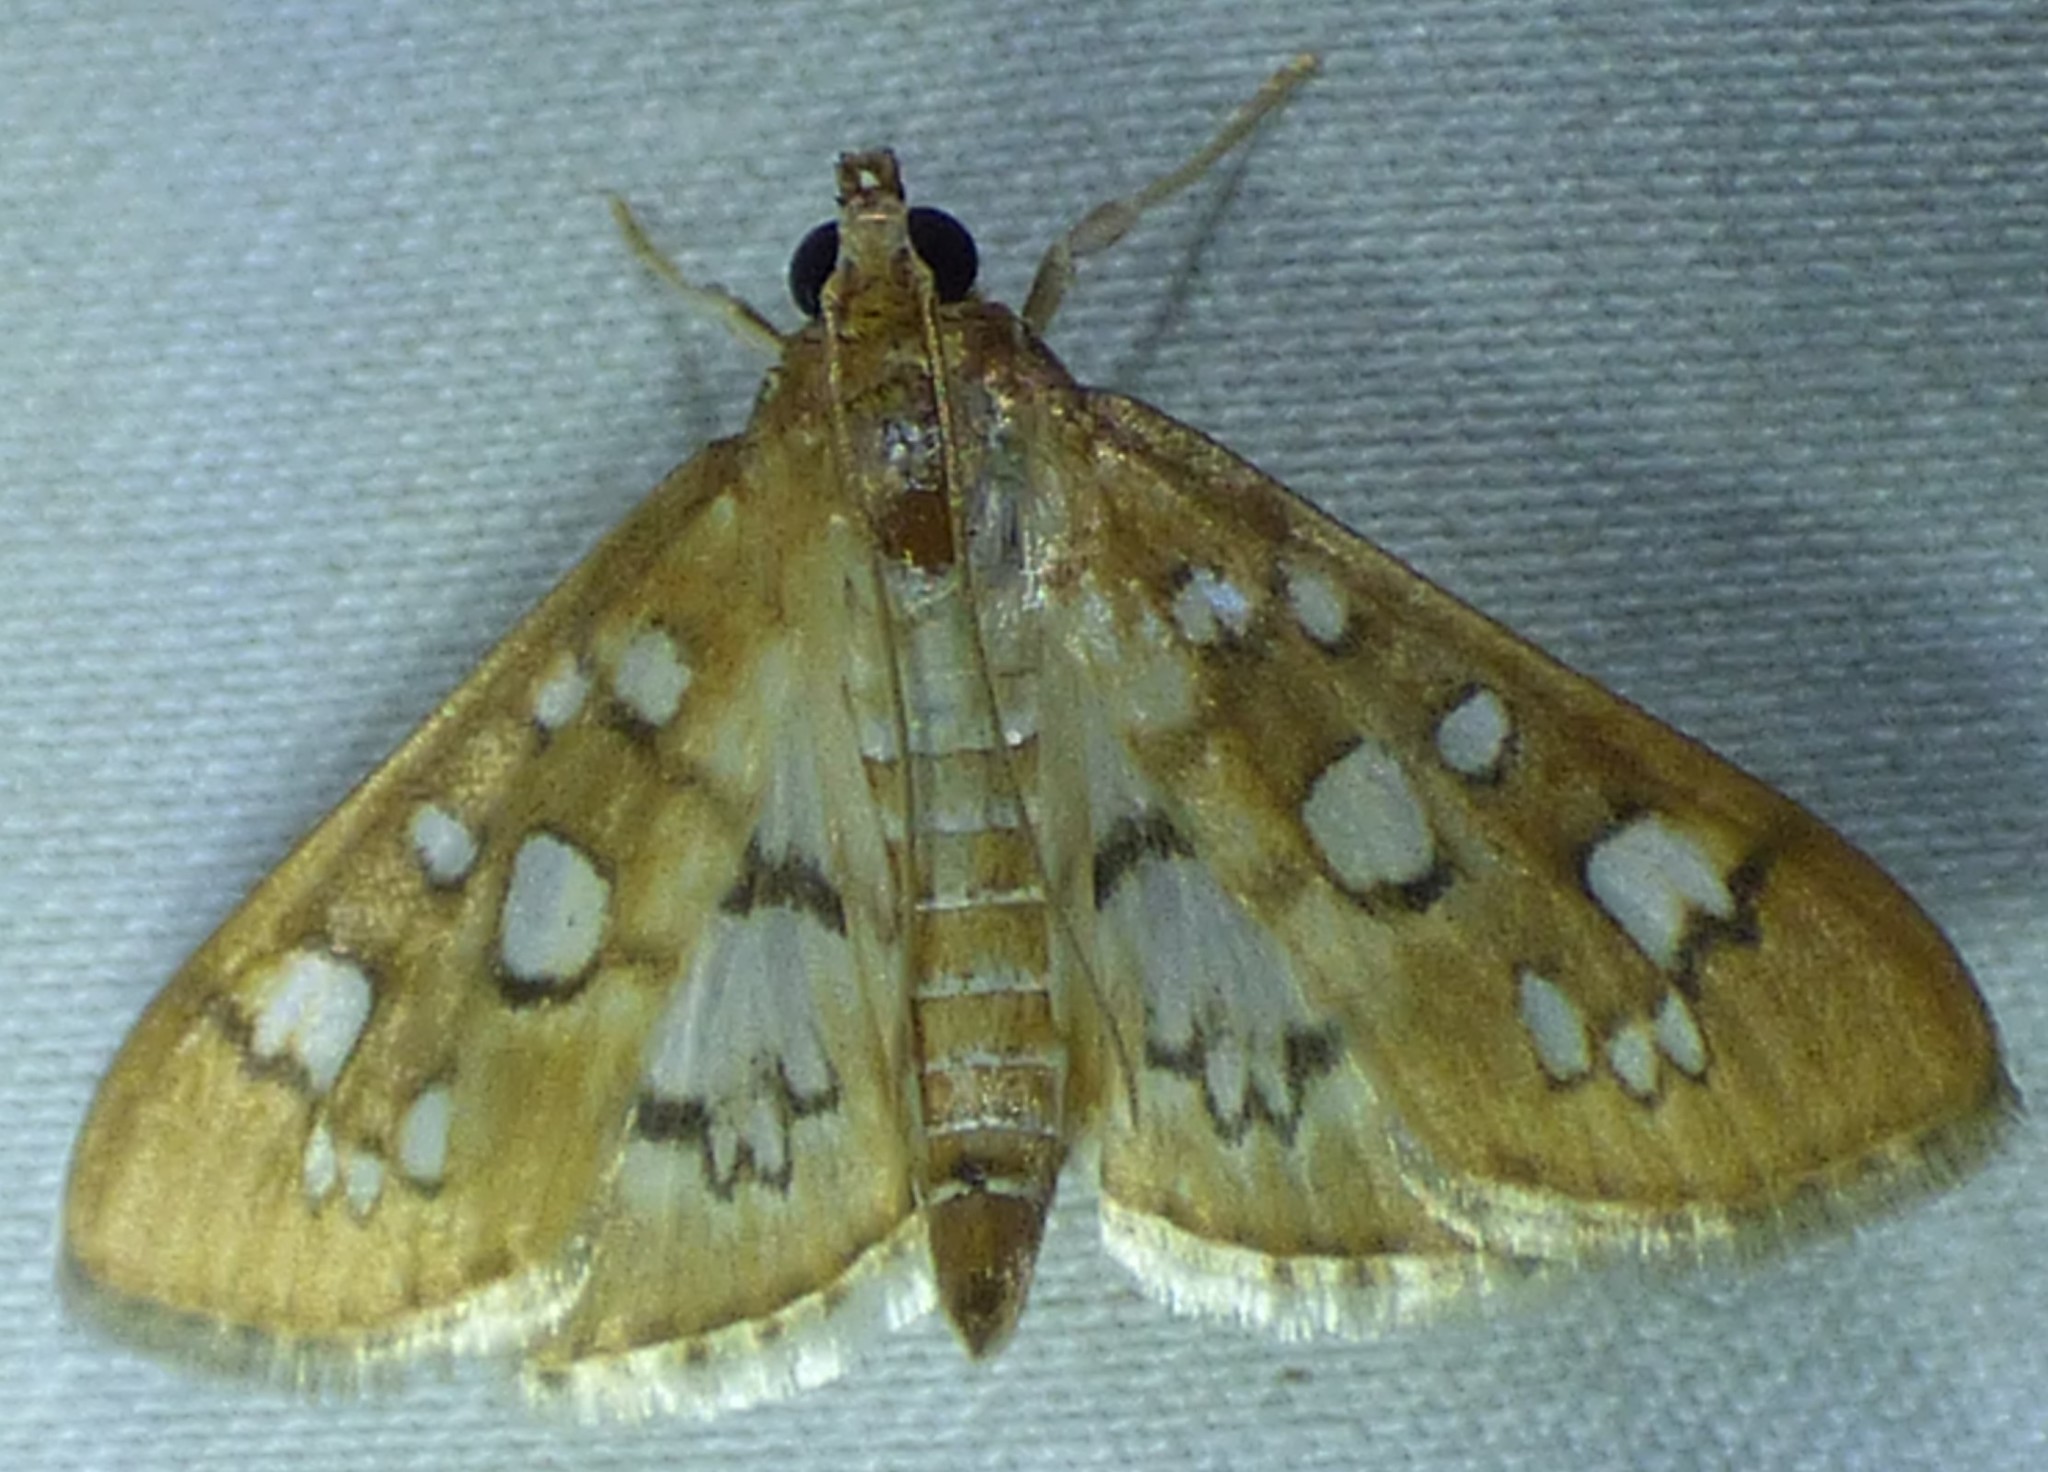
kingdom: Animalia
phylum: Arthropoda
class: Insecta
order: Lepidoptera
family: Crambidae
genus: Samea
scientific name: Samea baccatalis
